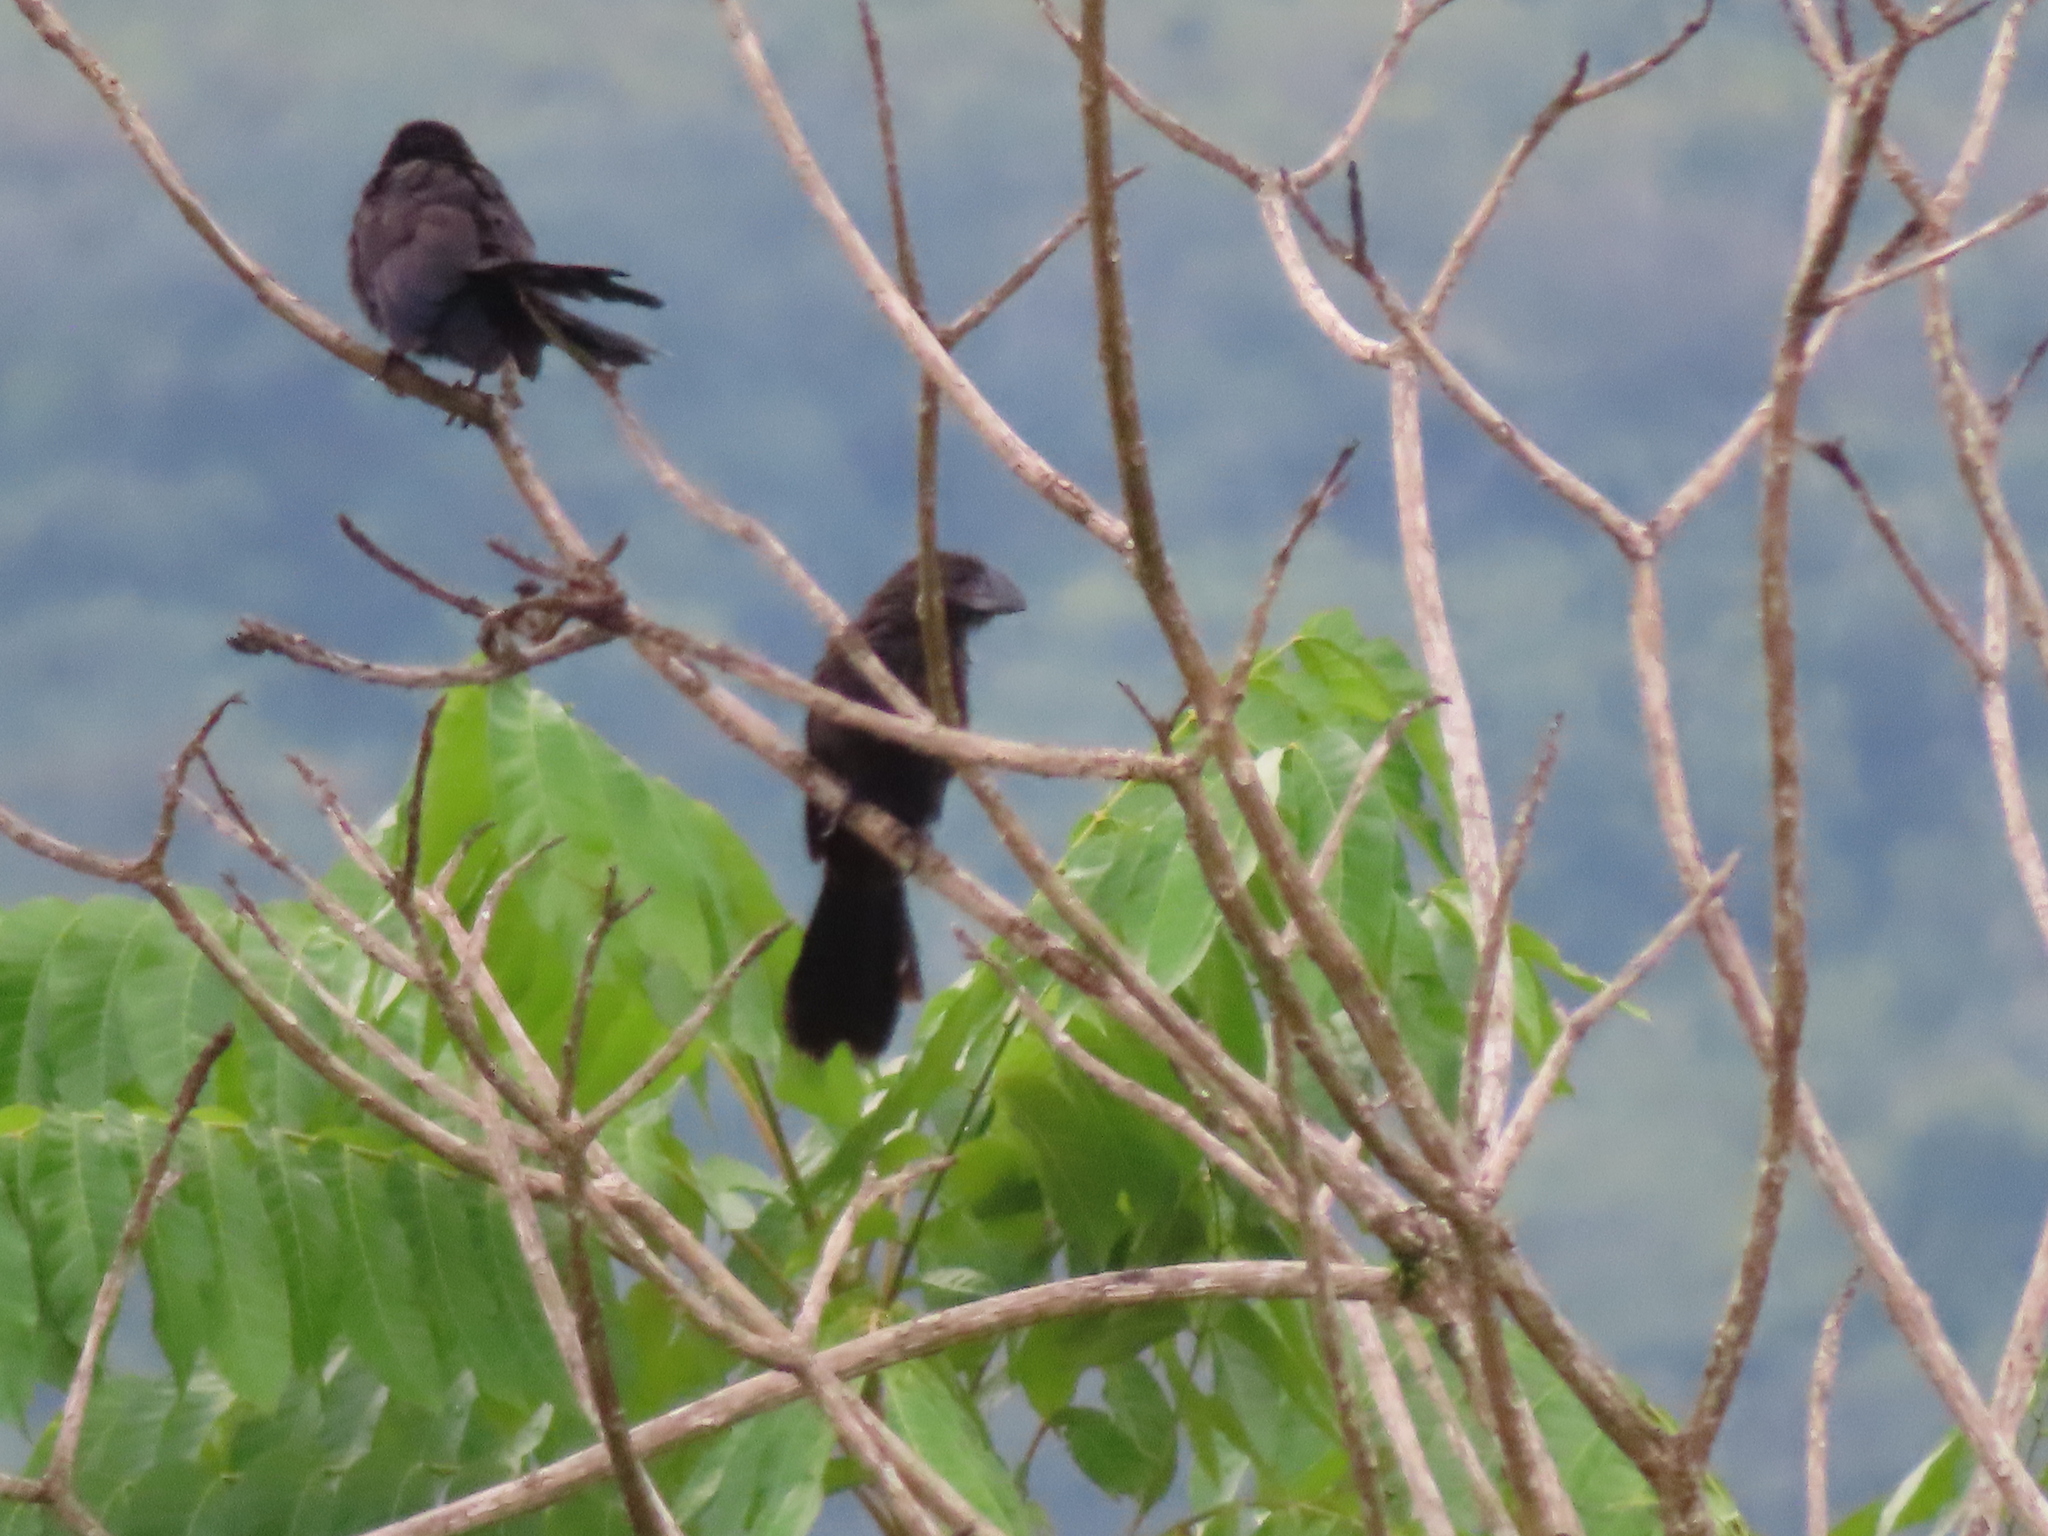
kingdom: Animalia
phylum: Chordata
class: Aves
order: Cuculiformes
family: Cuculidae
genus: Crotophaga
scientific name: Crotophaga ani
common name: Smooth-billed ani
